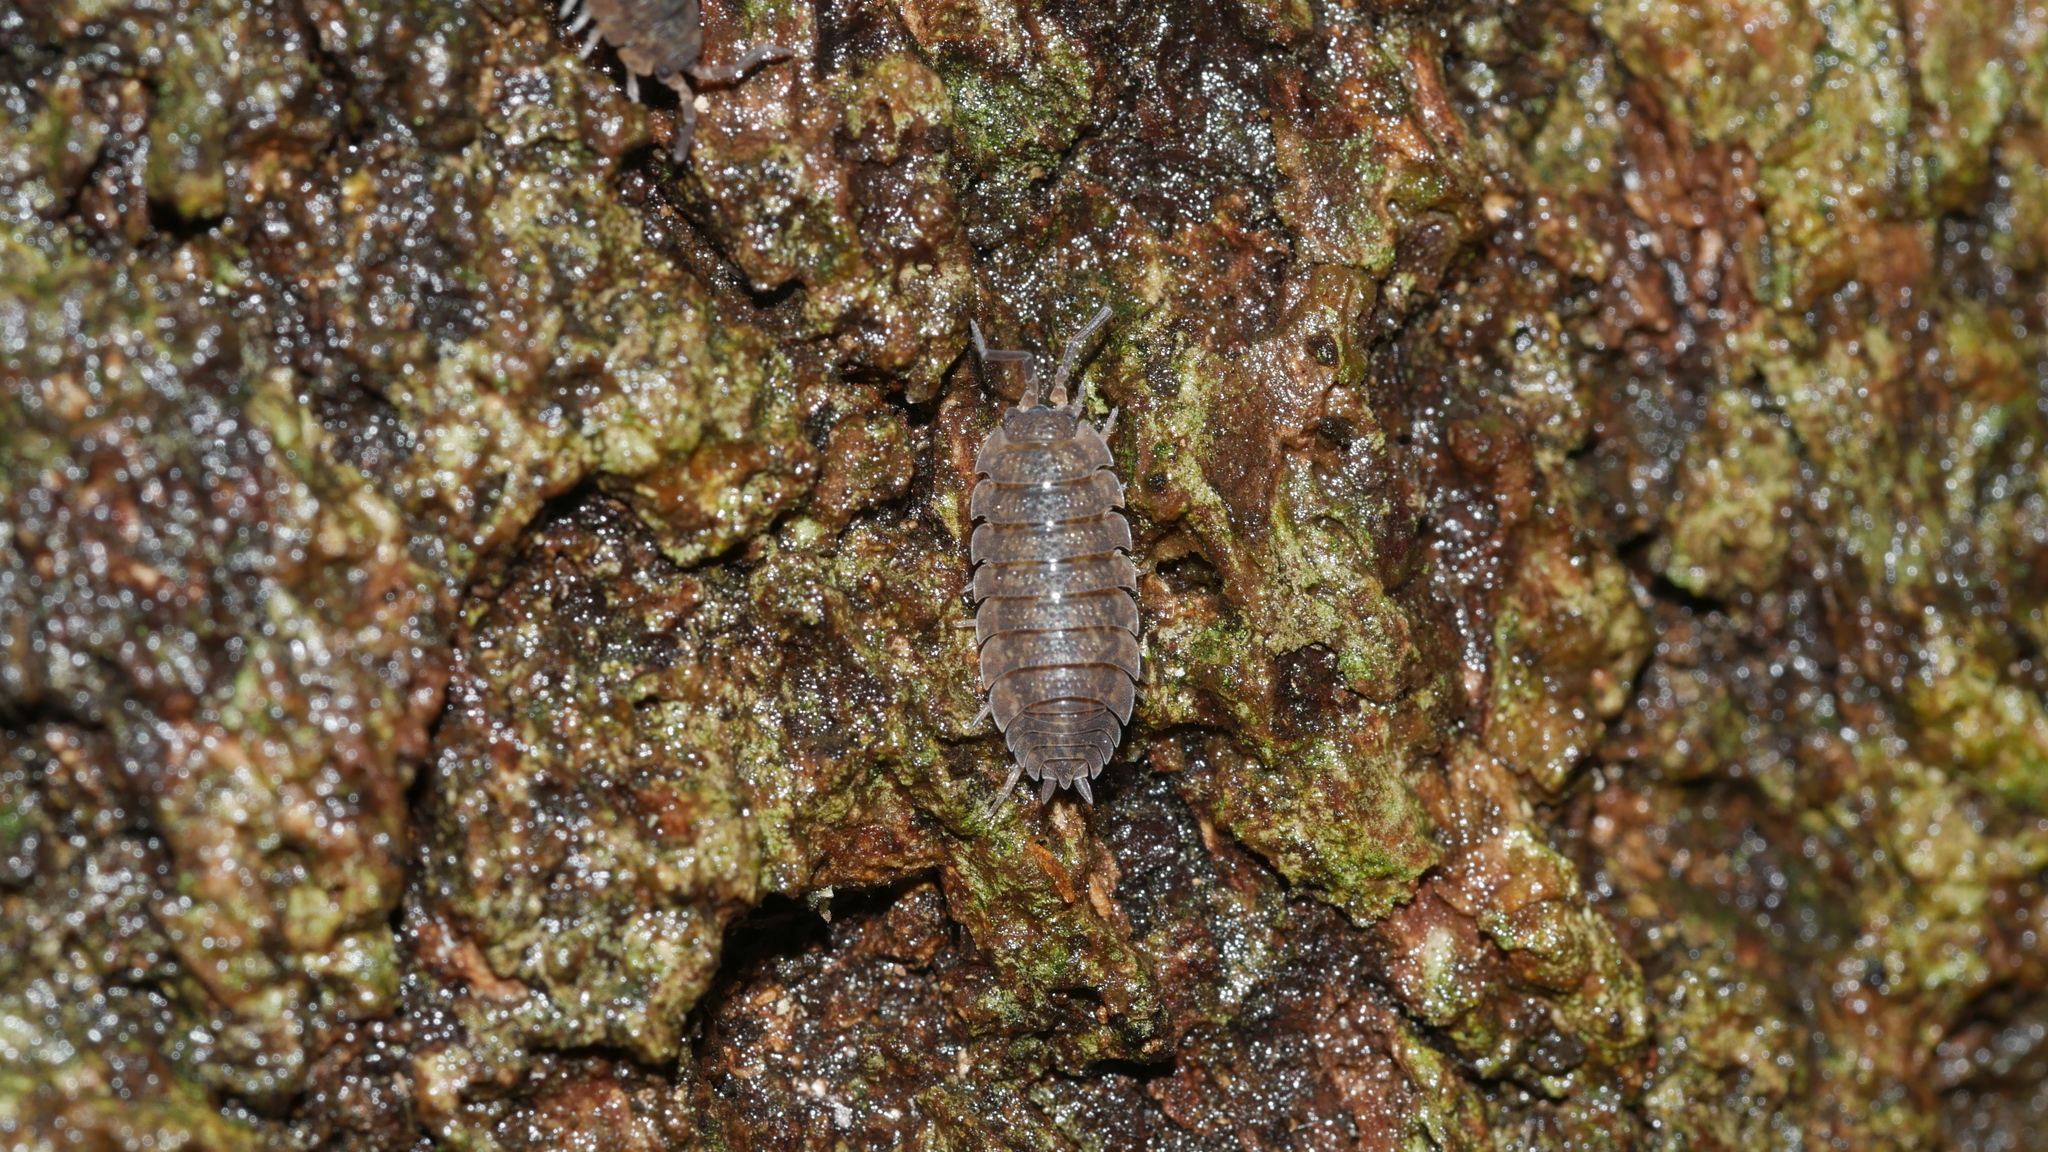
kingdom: Animalia
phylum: Arthropoda
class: Malacostraca
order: Isopoda
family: Porcellionidae
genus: Porcellio
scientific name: Porcellio scaber
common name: Common rough woodlouse
